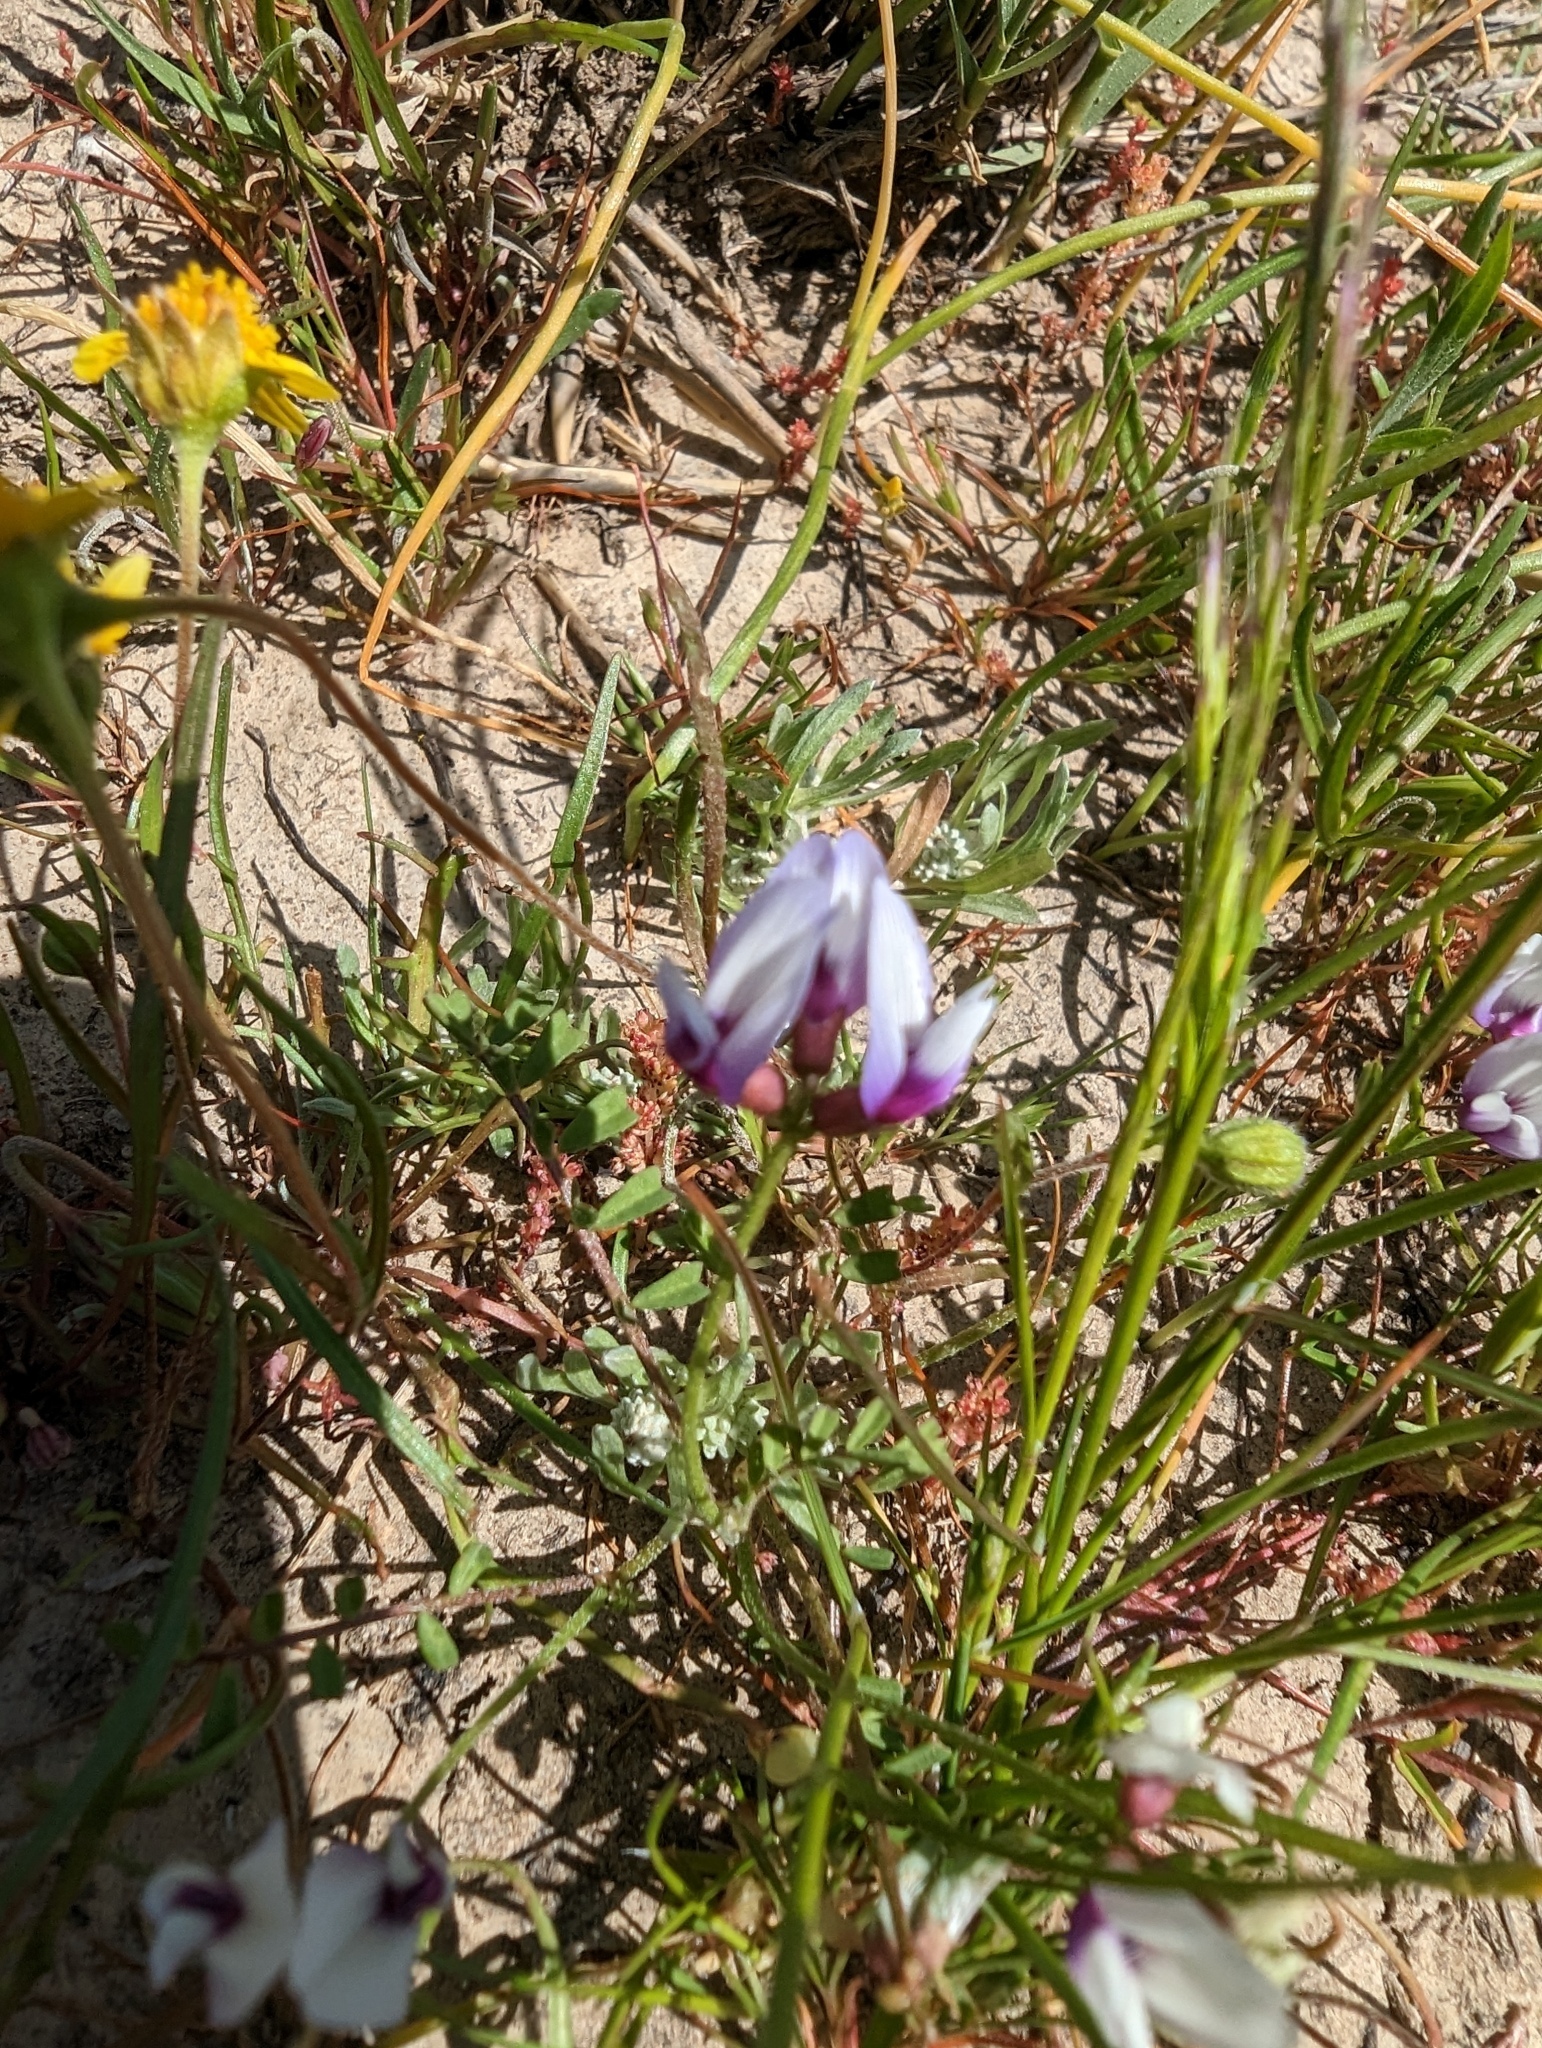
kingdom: Plantae
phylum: Tracheophyta
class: Magnoliopsida
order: Fabales
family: Fabaceae
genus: Astragalus
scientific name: Astragalus tener
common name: Gray slender milkvetch
